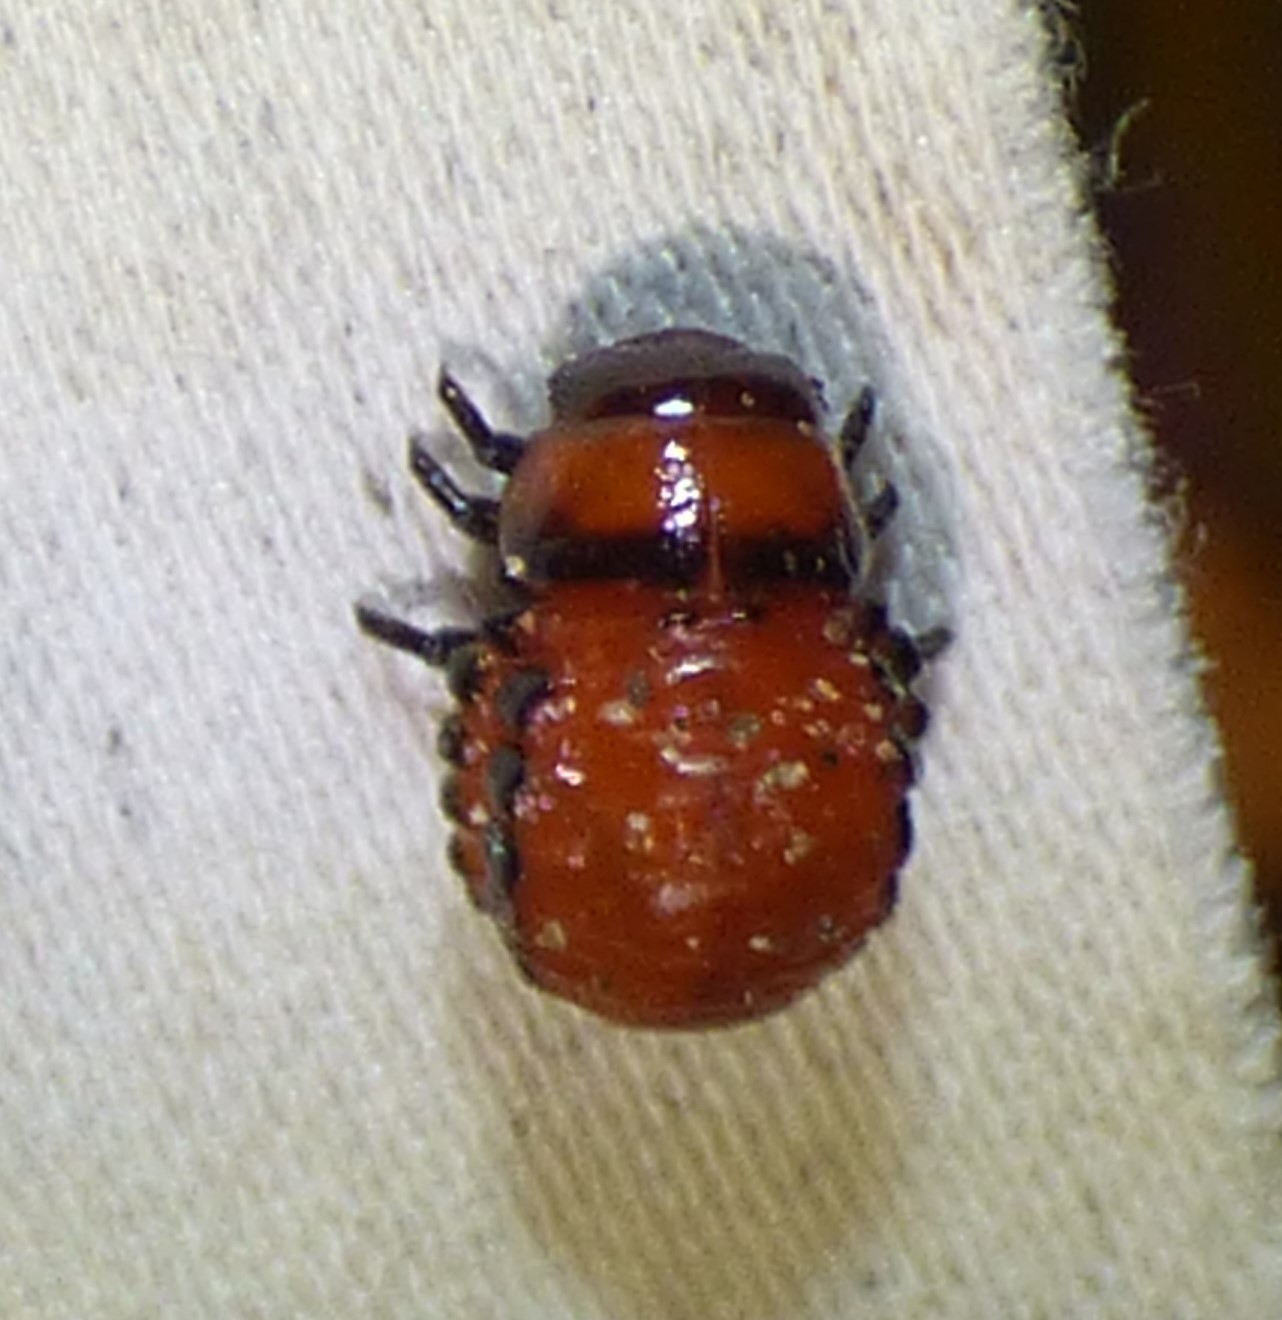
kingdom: Animalia
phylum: Arthropoda
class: Insecta
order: Coleoptera
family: Chrysomelidae
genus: Leptinotarsa
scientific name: Leptinotarsa decemlineata
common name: Colorado potato beetle
